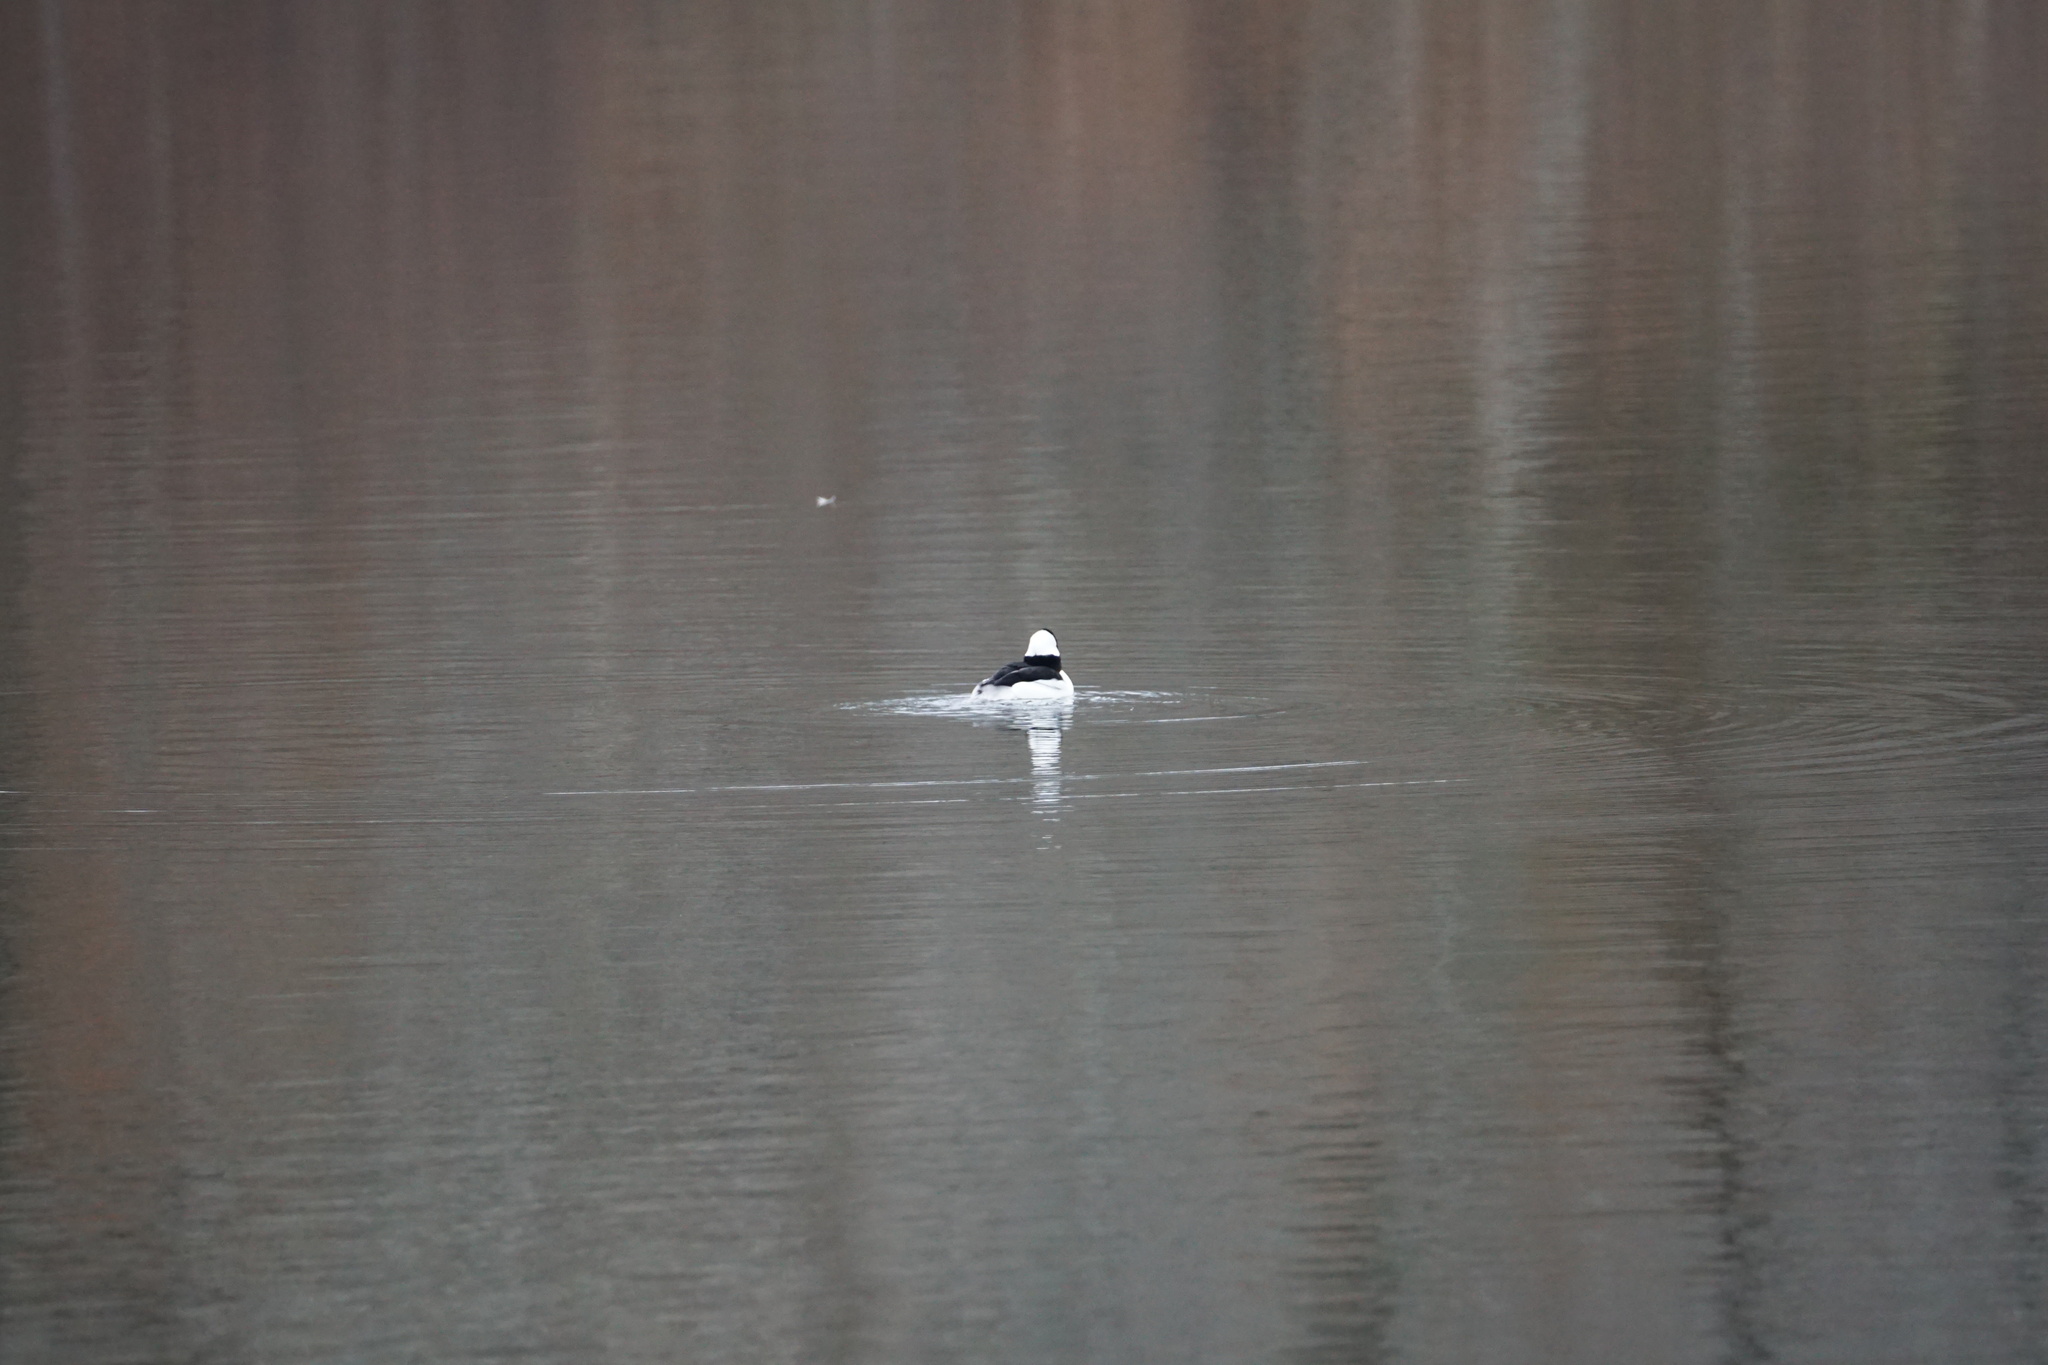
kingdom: Animalia
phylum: Chordata
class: Aves
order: Anseriformes
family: Anatidae
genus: Bucephala
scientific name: Bucephala albeola
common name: Bufflehead
